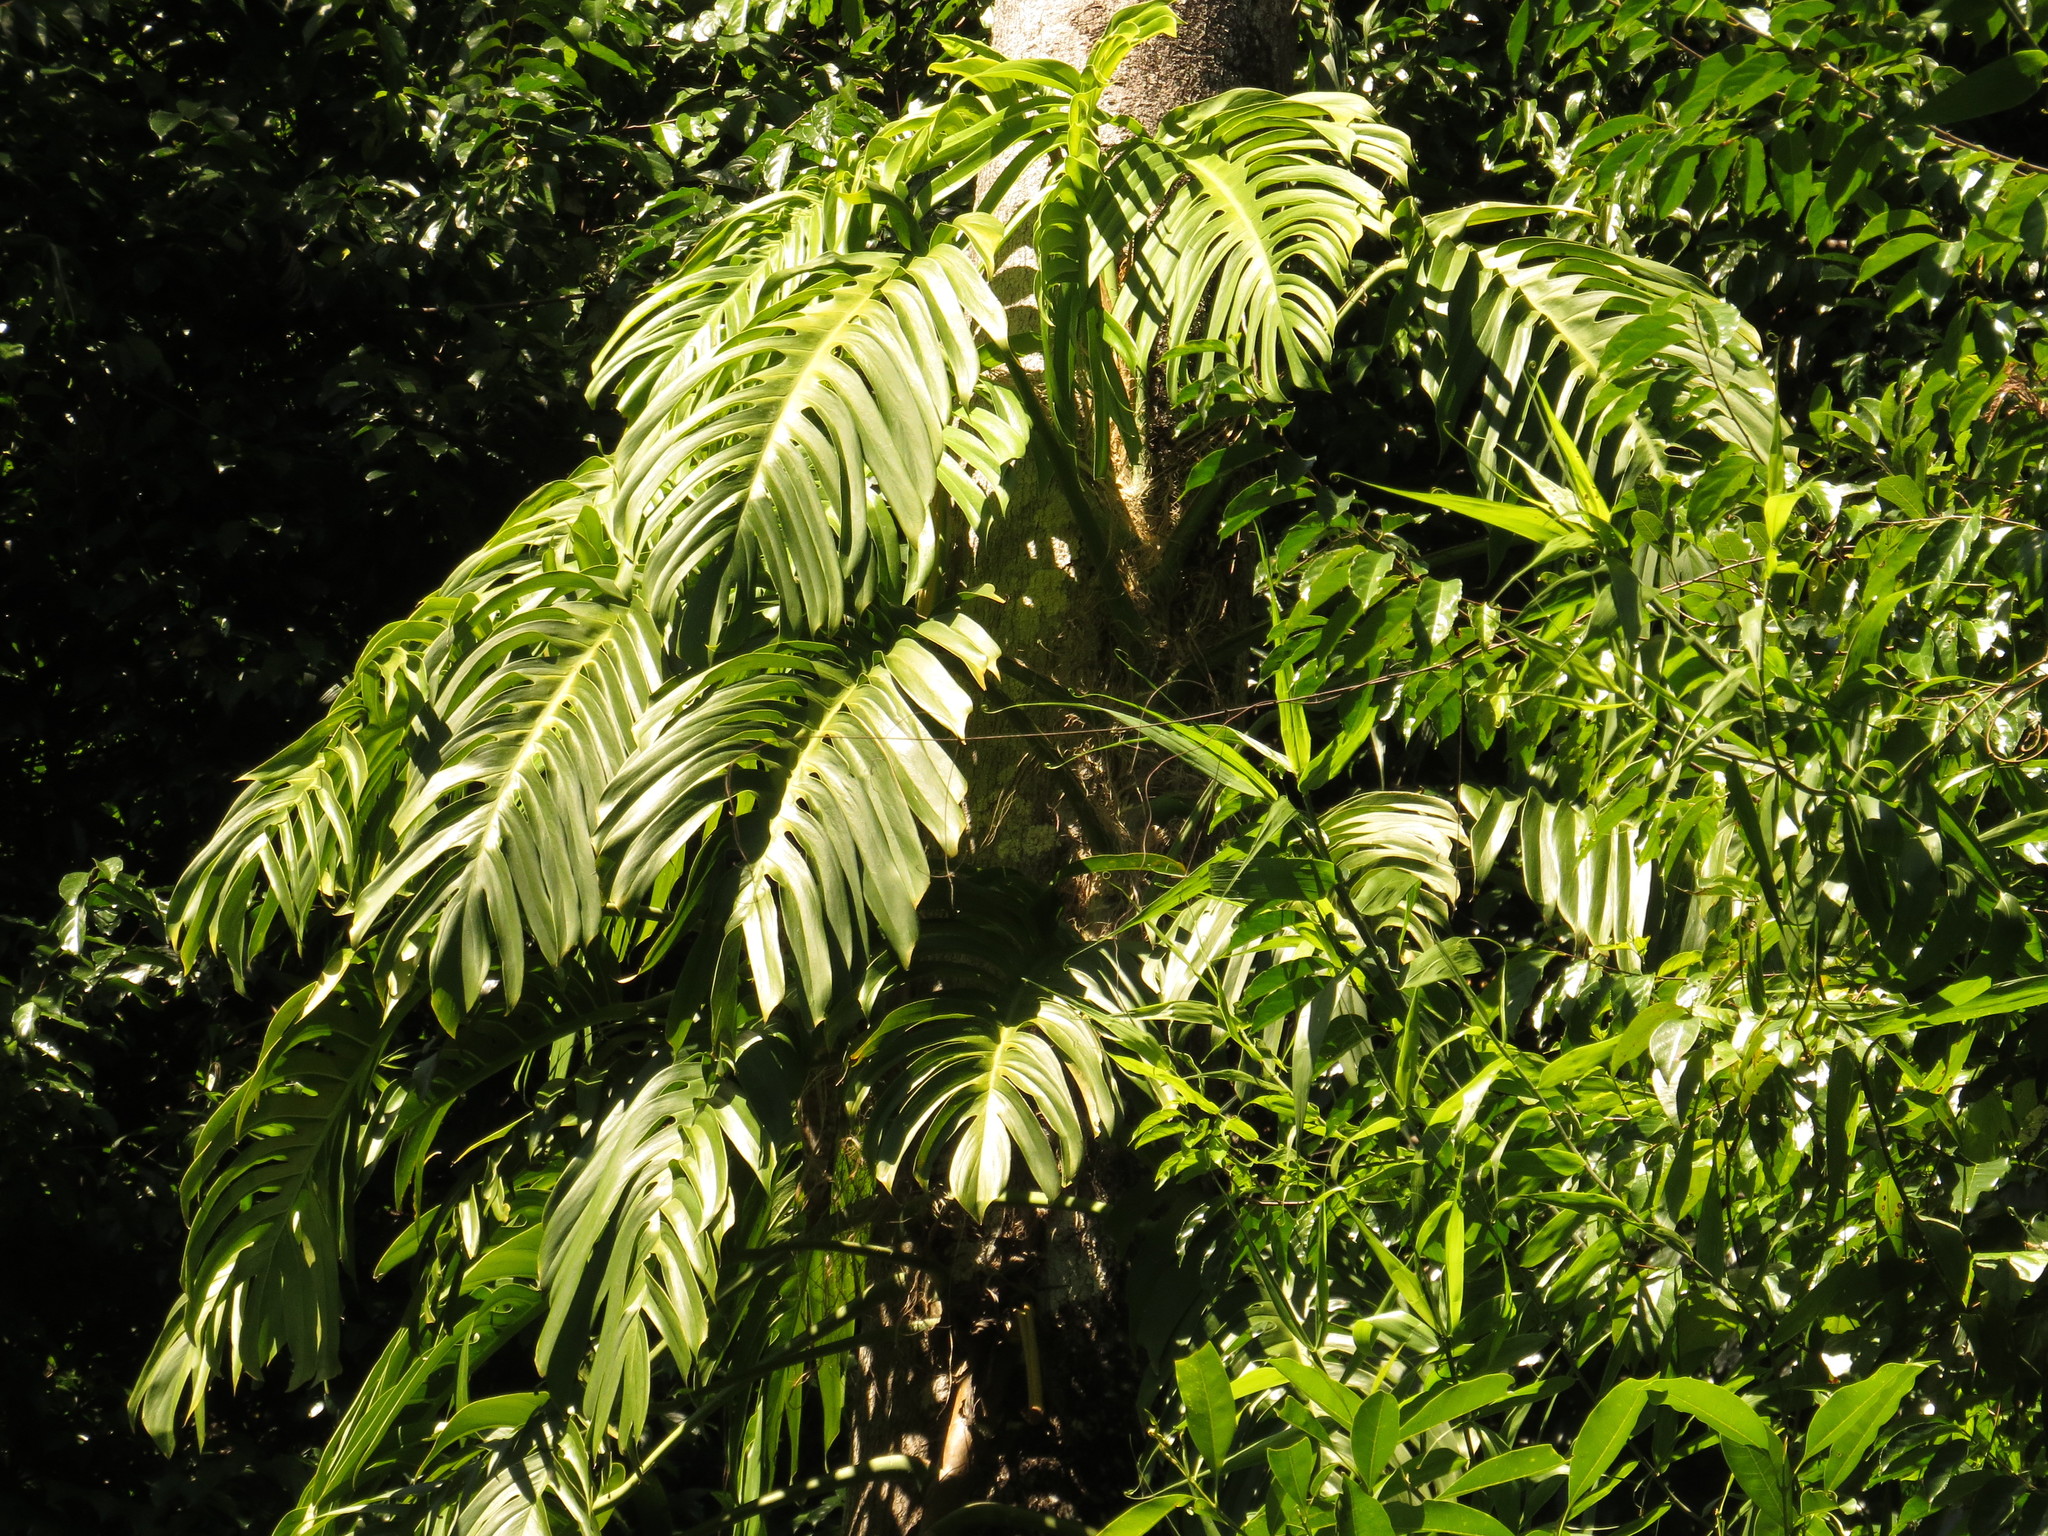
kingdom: Plantae
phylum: Tracheophyta
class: Liliopsida
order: Alismatales
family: Araceae
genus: Epipremnum
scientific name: Epipremnum pinnatum
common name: Centipede tongavine
